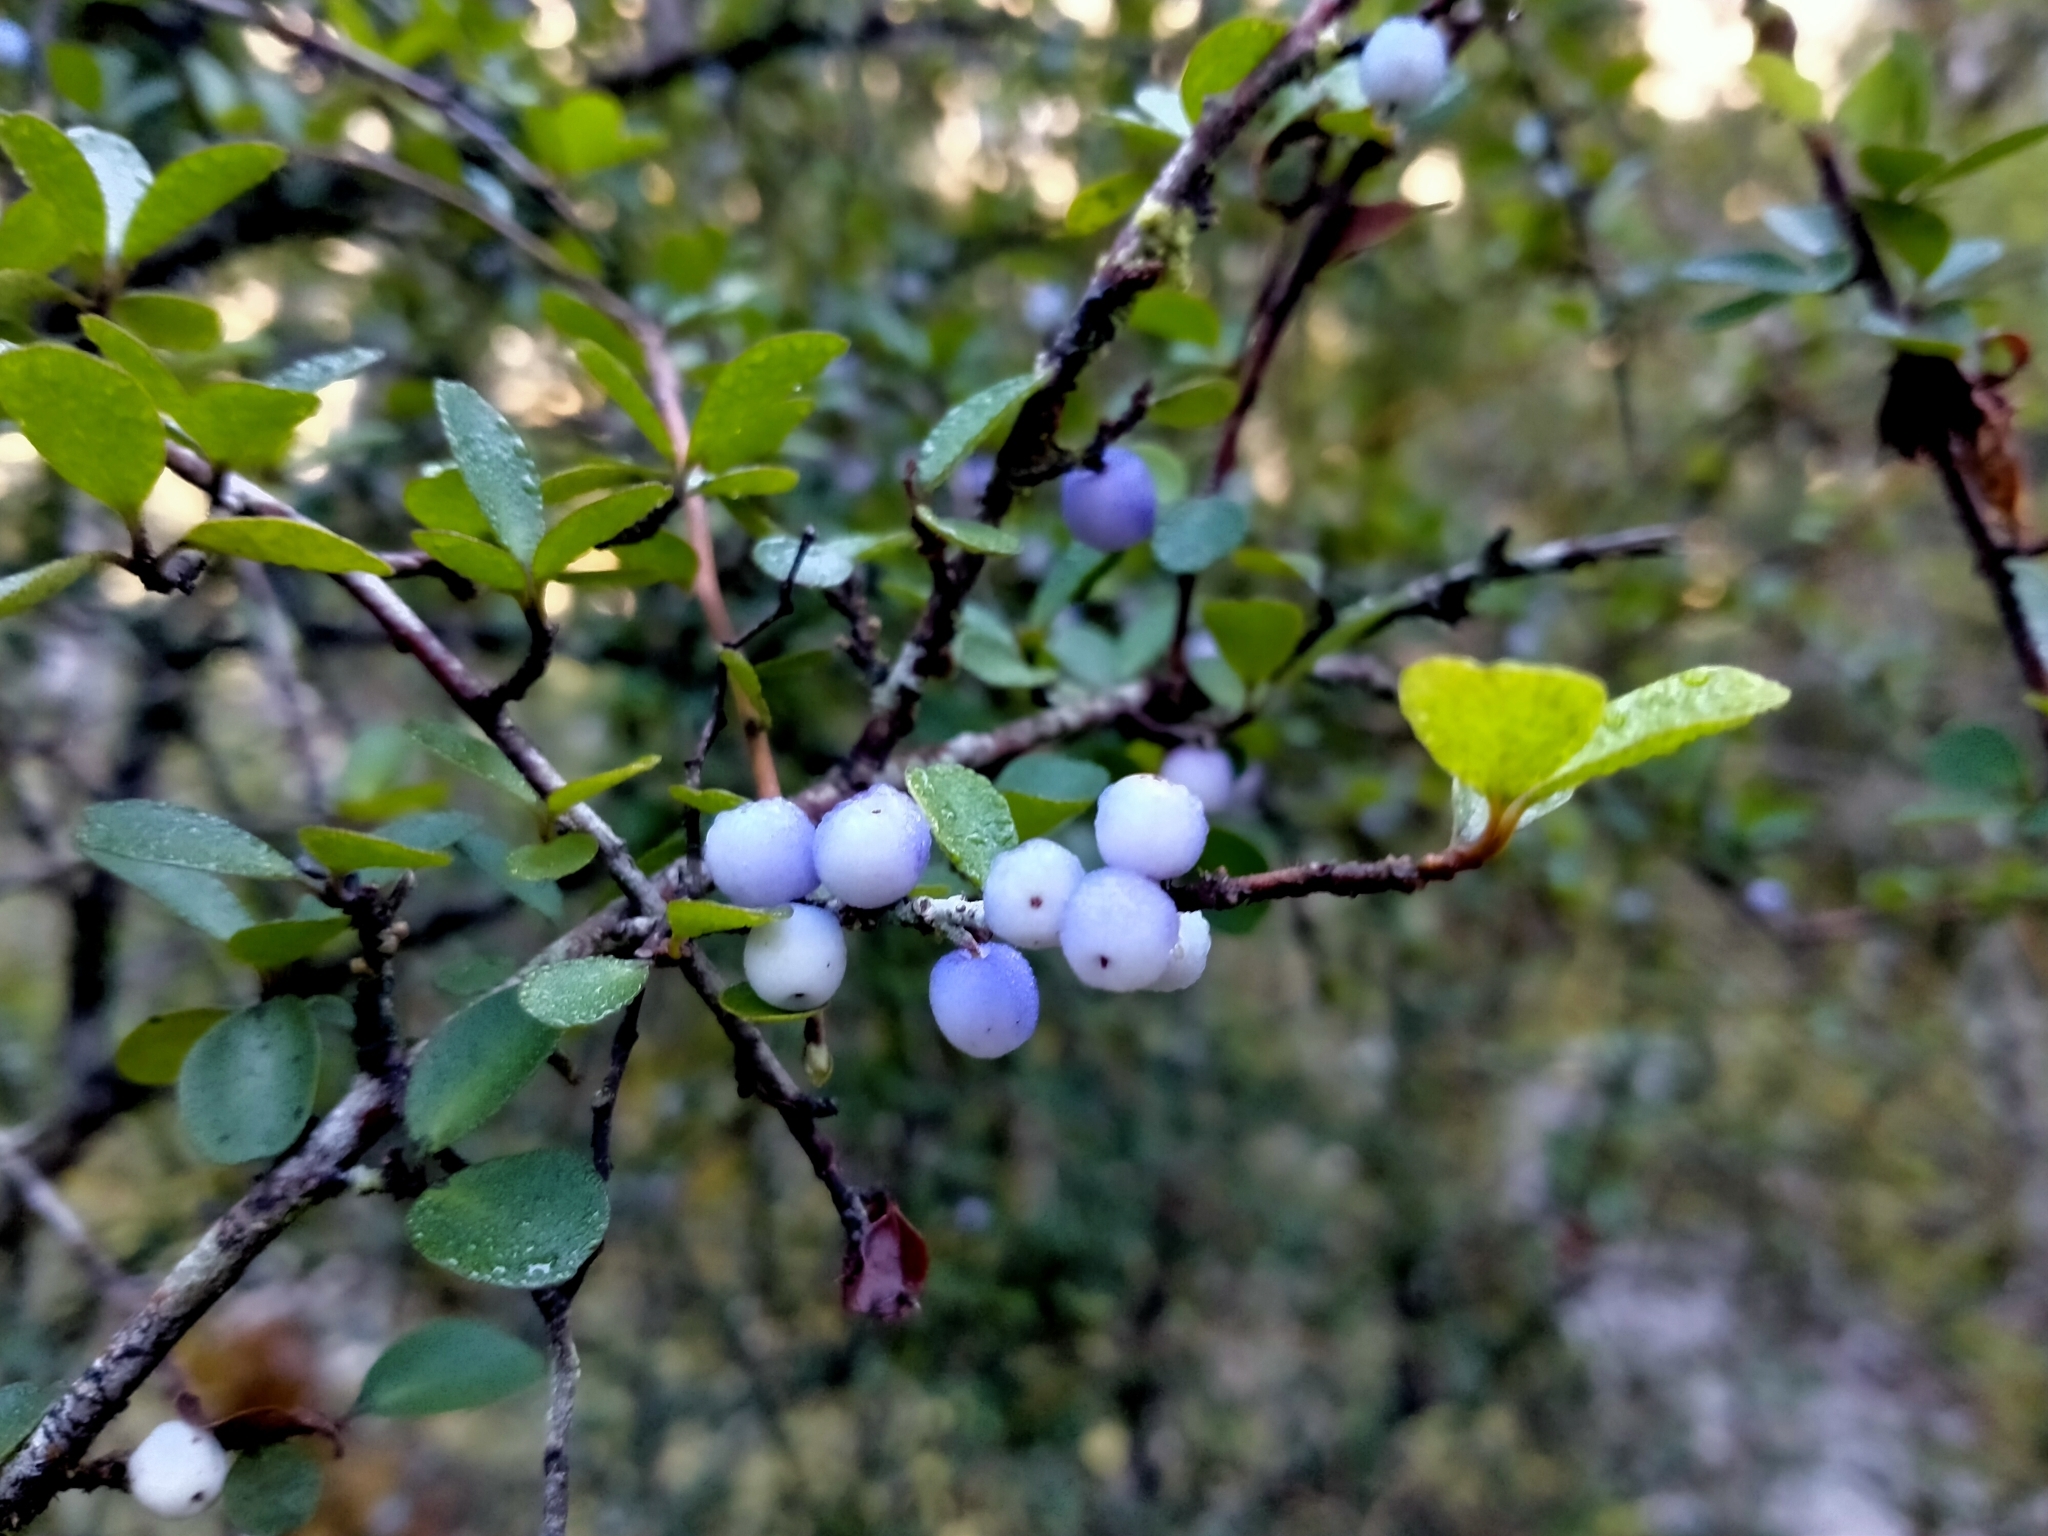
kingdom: Plantae
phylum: Tracheophyta
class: Magnoliopsida
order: Ericales
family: Primulaceae
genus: Myrsine
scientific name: Myrsine divaricata
